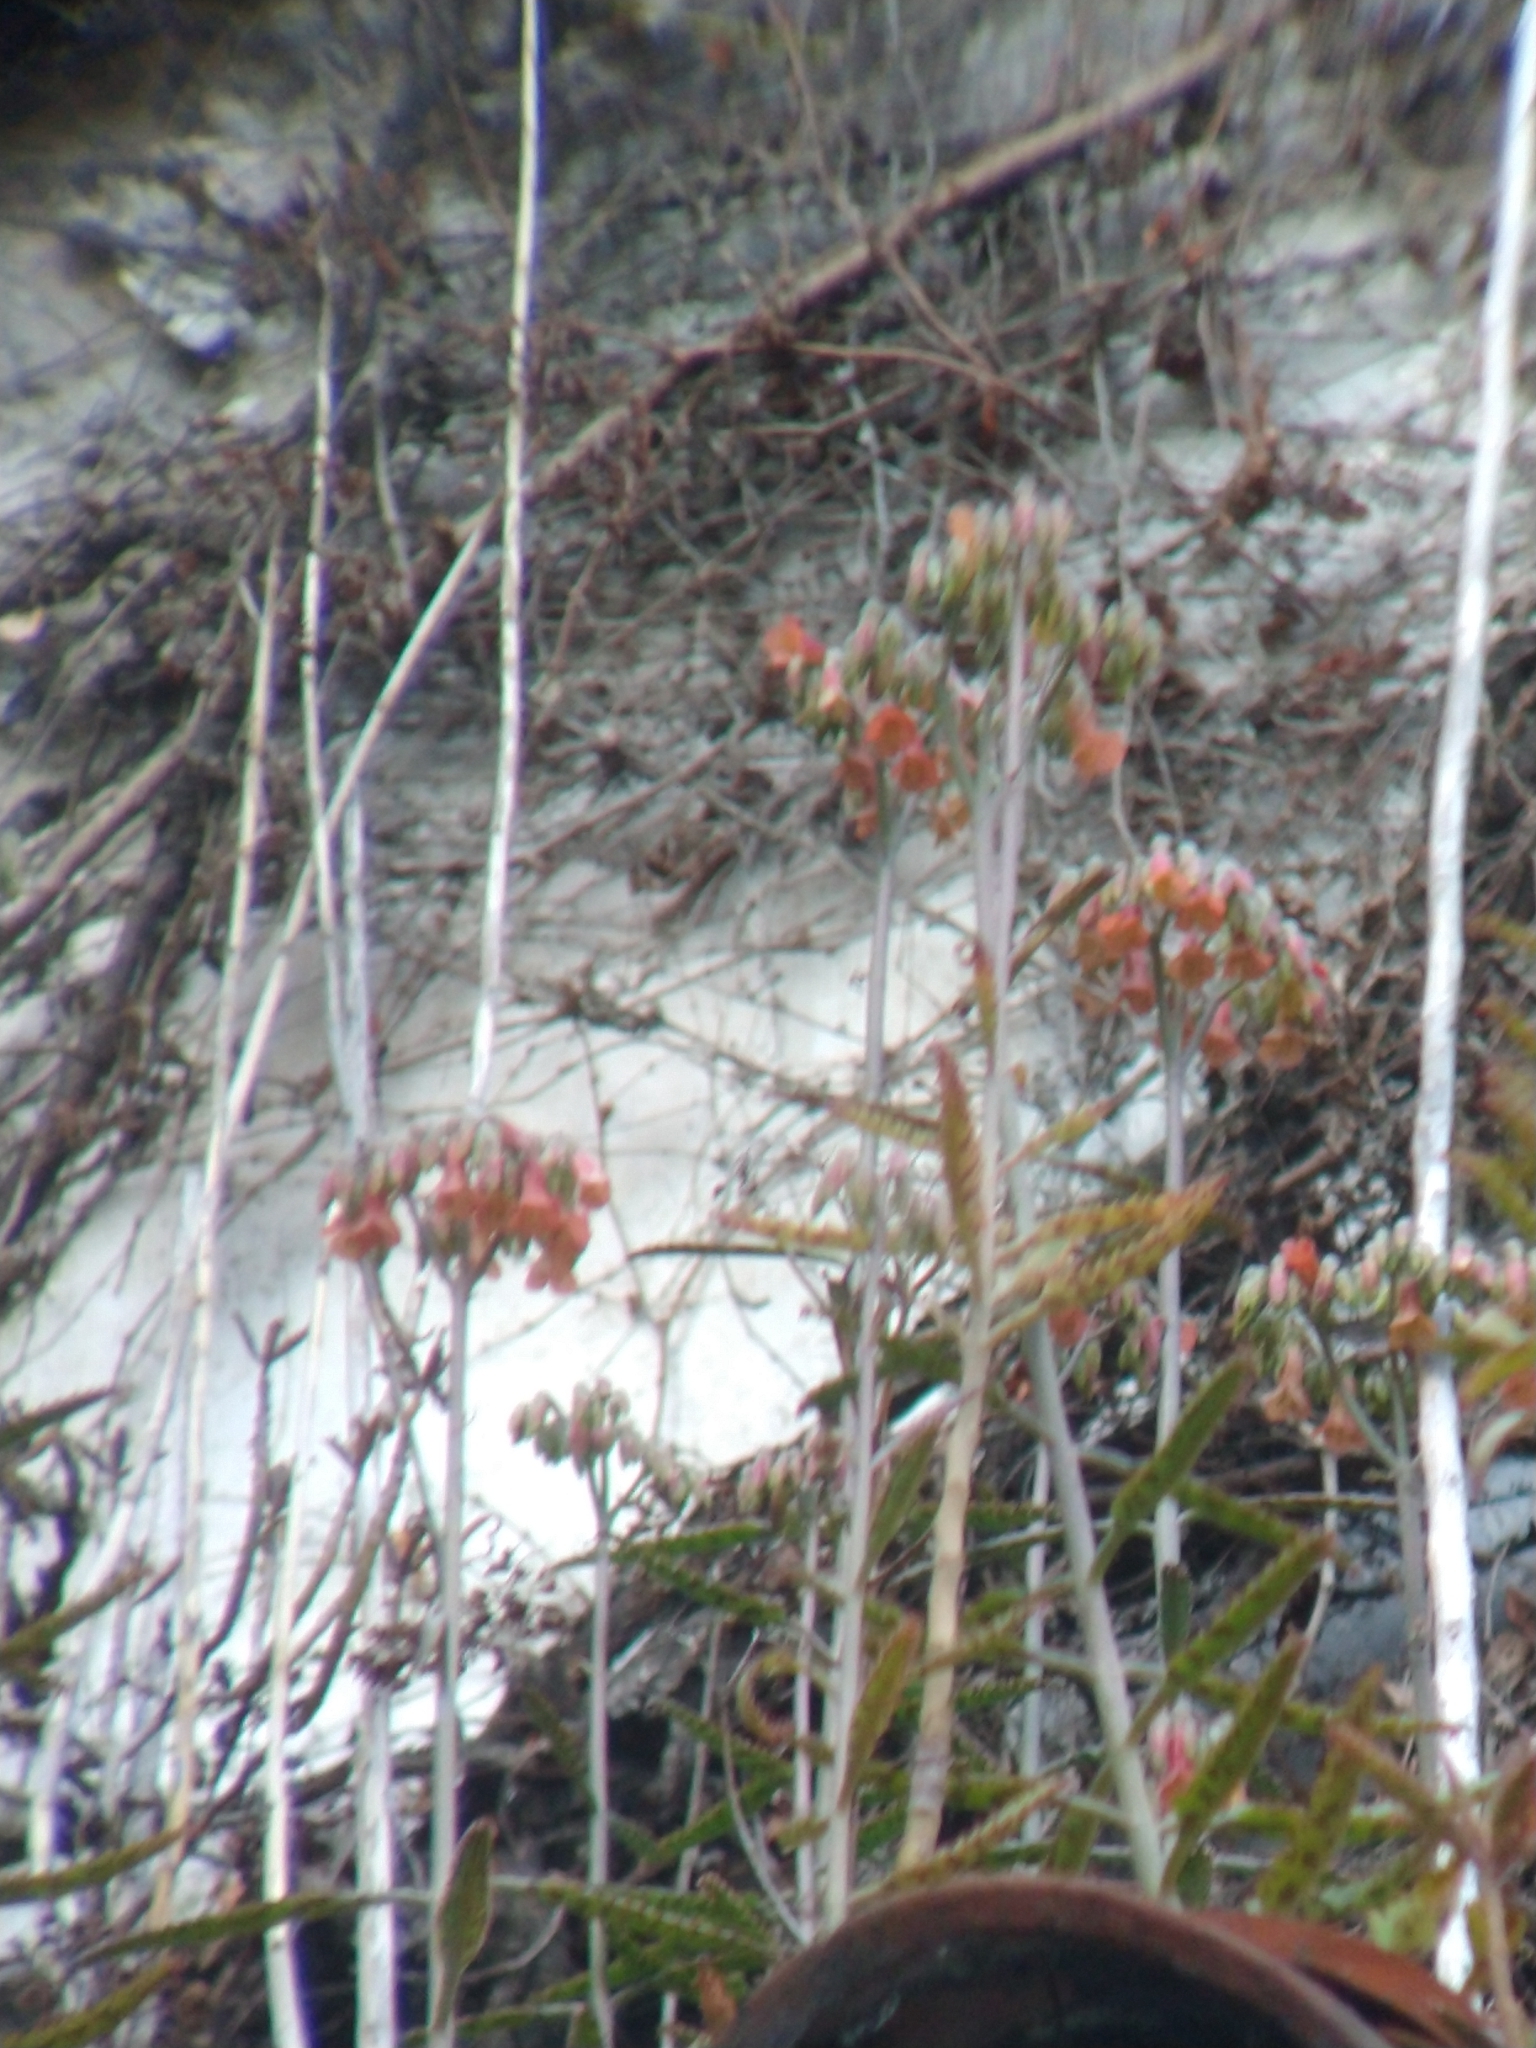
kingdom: Plantae
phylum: Tracheophyta
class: Magnoliopsida
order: Saxifragales
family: Crassulaceae
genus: Kalanchoe
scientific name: Kalanchoe houghtonii
